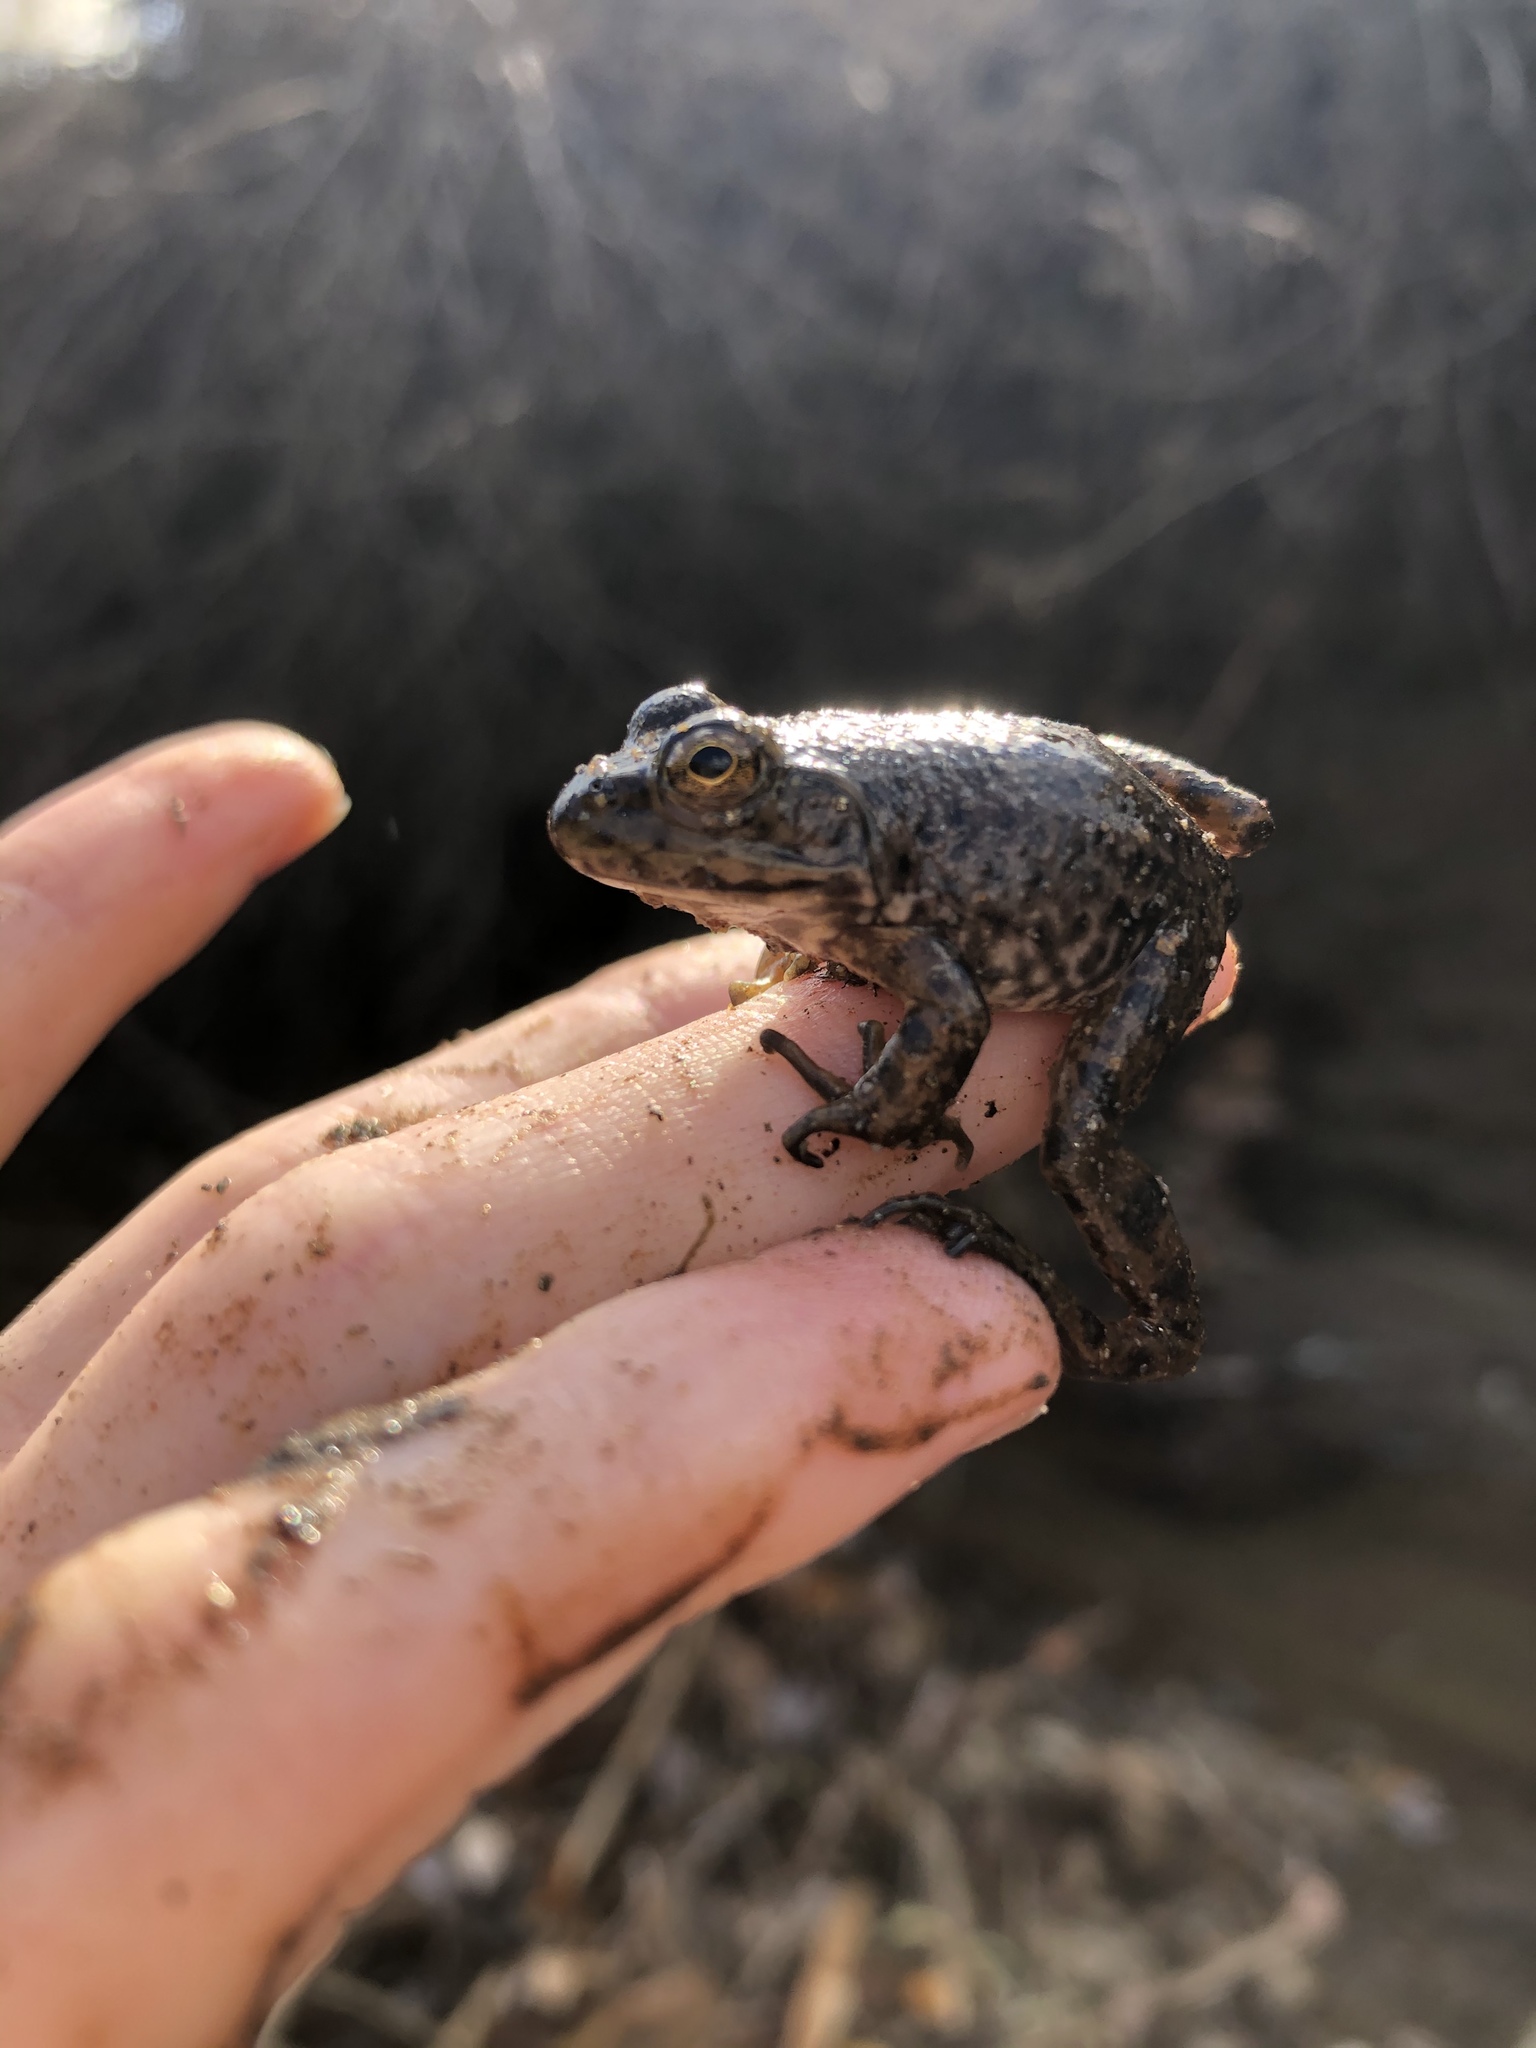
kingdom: Animalia
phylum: Chordata
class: Amphibia
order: Anura
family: Ranidae
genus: Lithobates
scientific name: Lithobates catesbeianus
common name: American bullfrog
